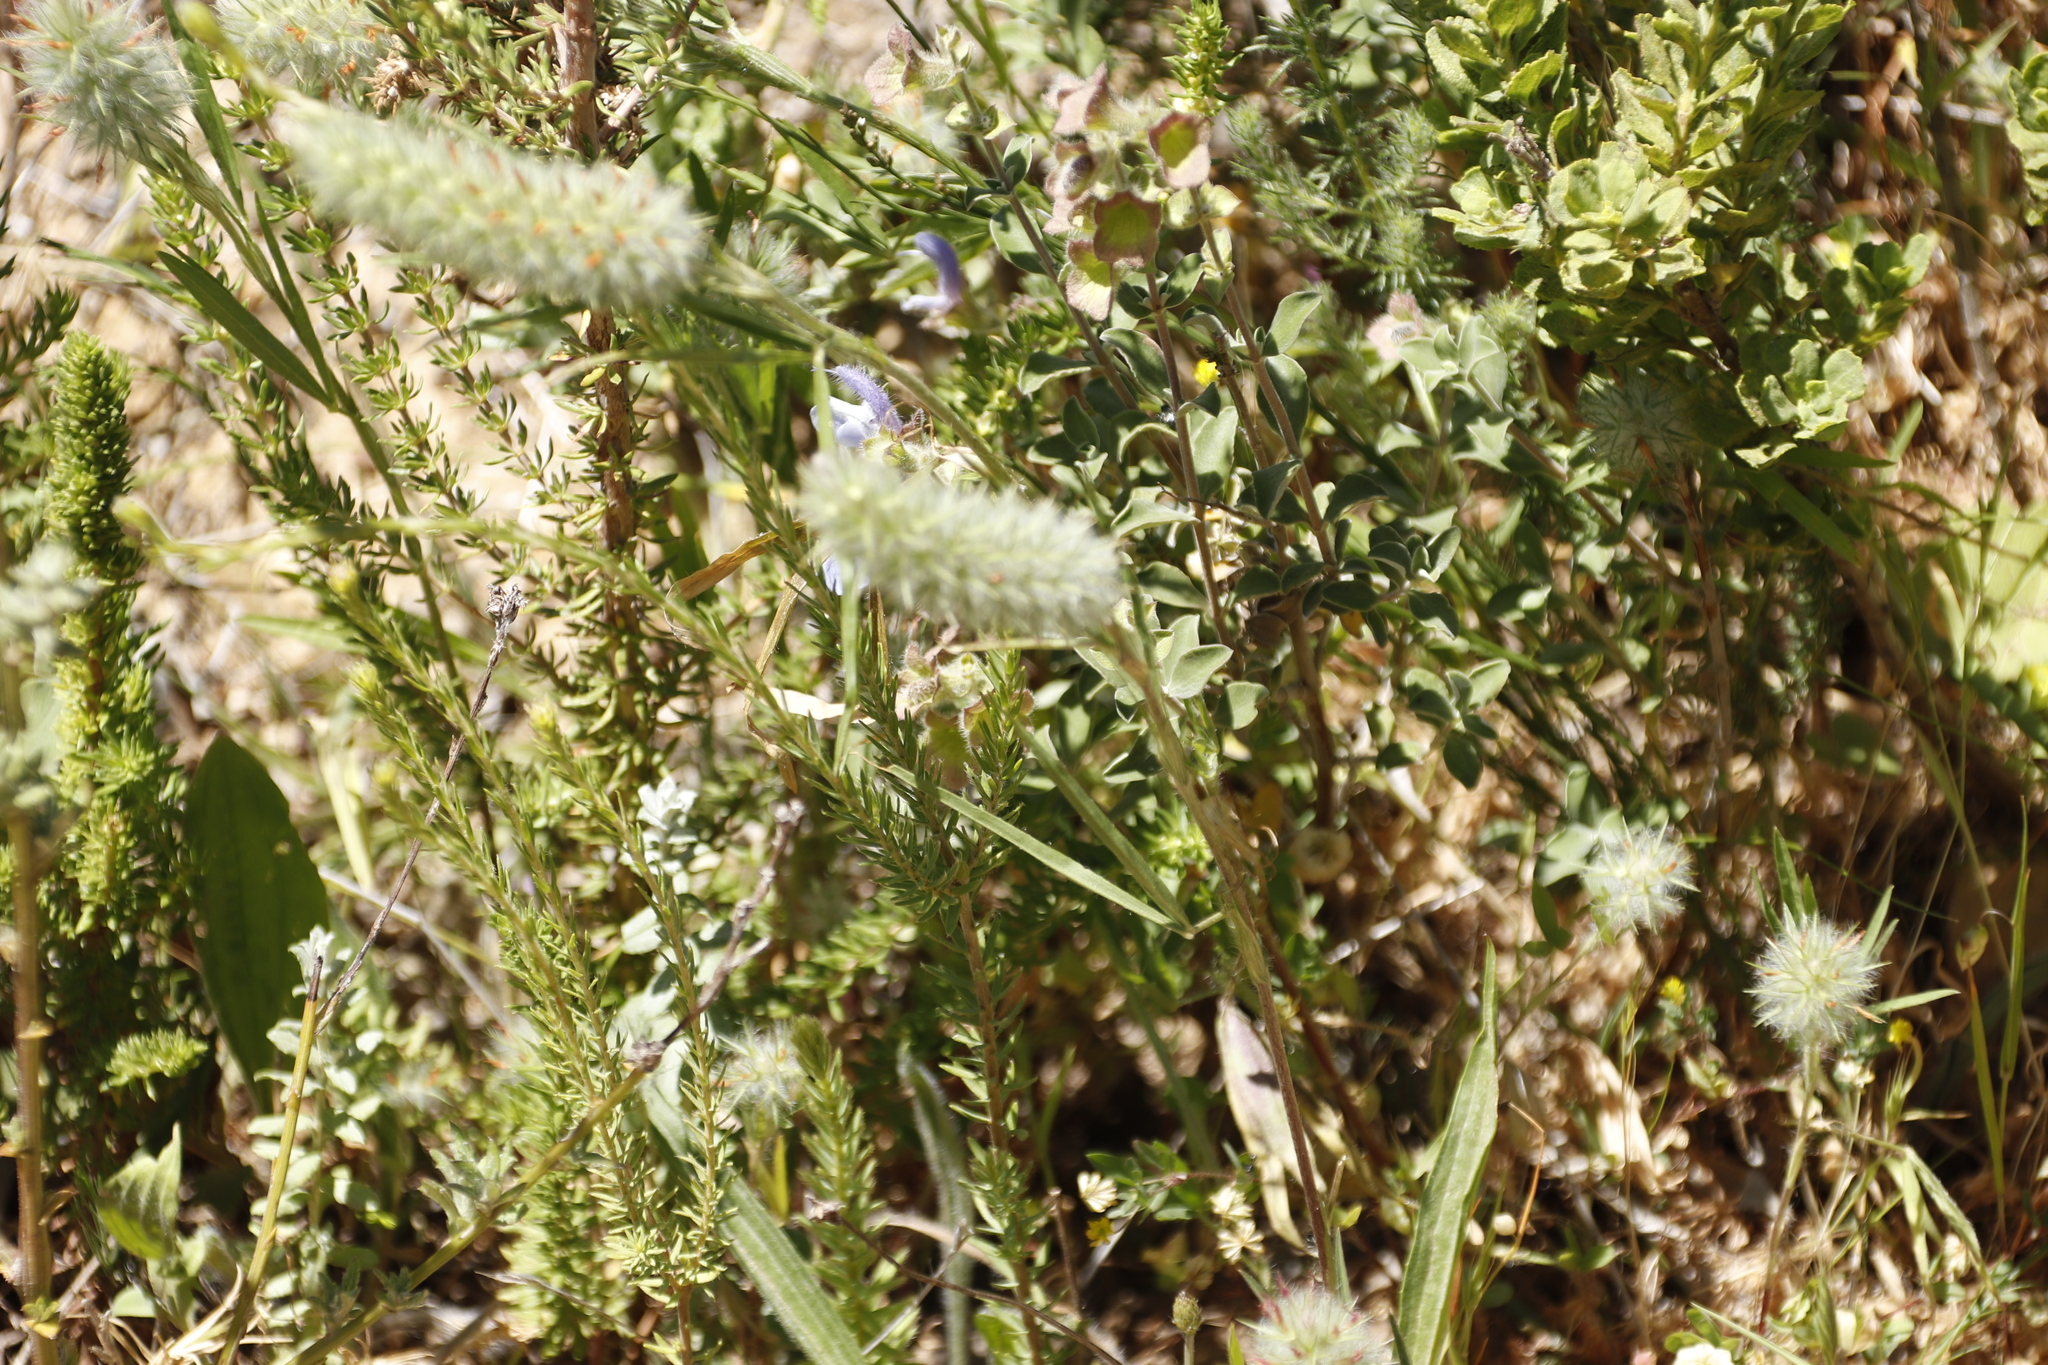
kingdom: Plantae
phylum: Tracheophyta
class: Magnoliopsida
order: Fabales
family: Fabaceae
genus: Trifolium
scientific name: Trifolium angustifolium
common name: Narrow clover
